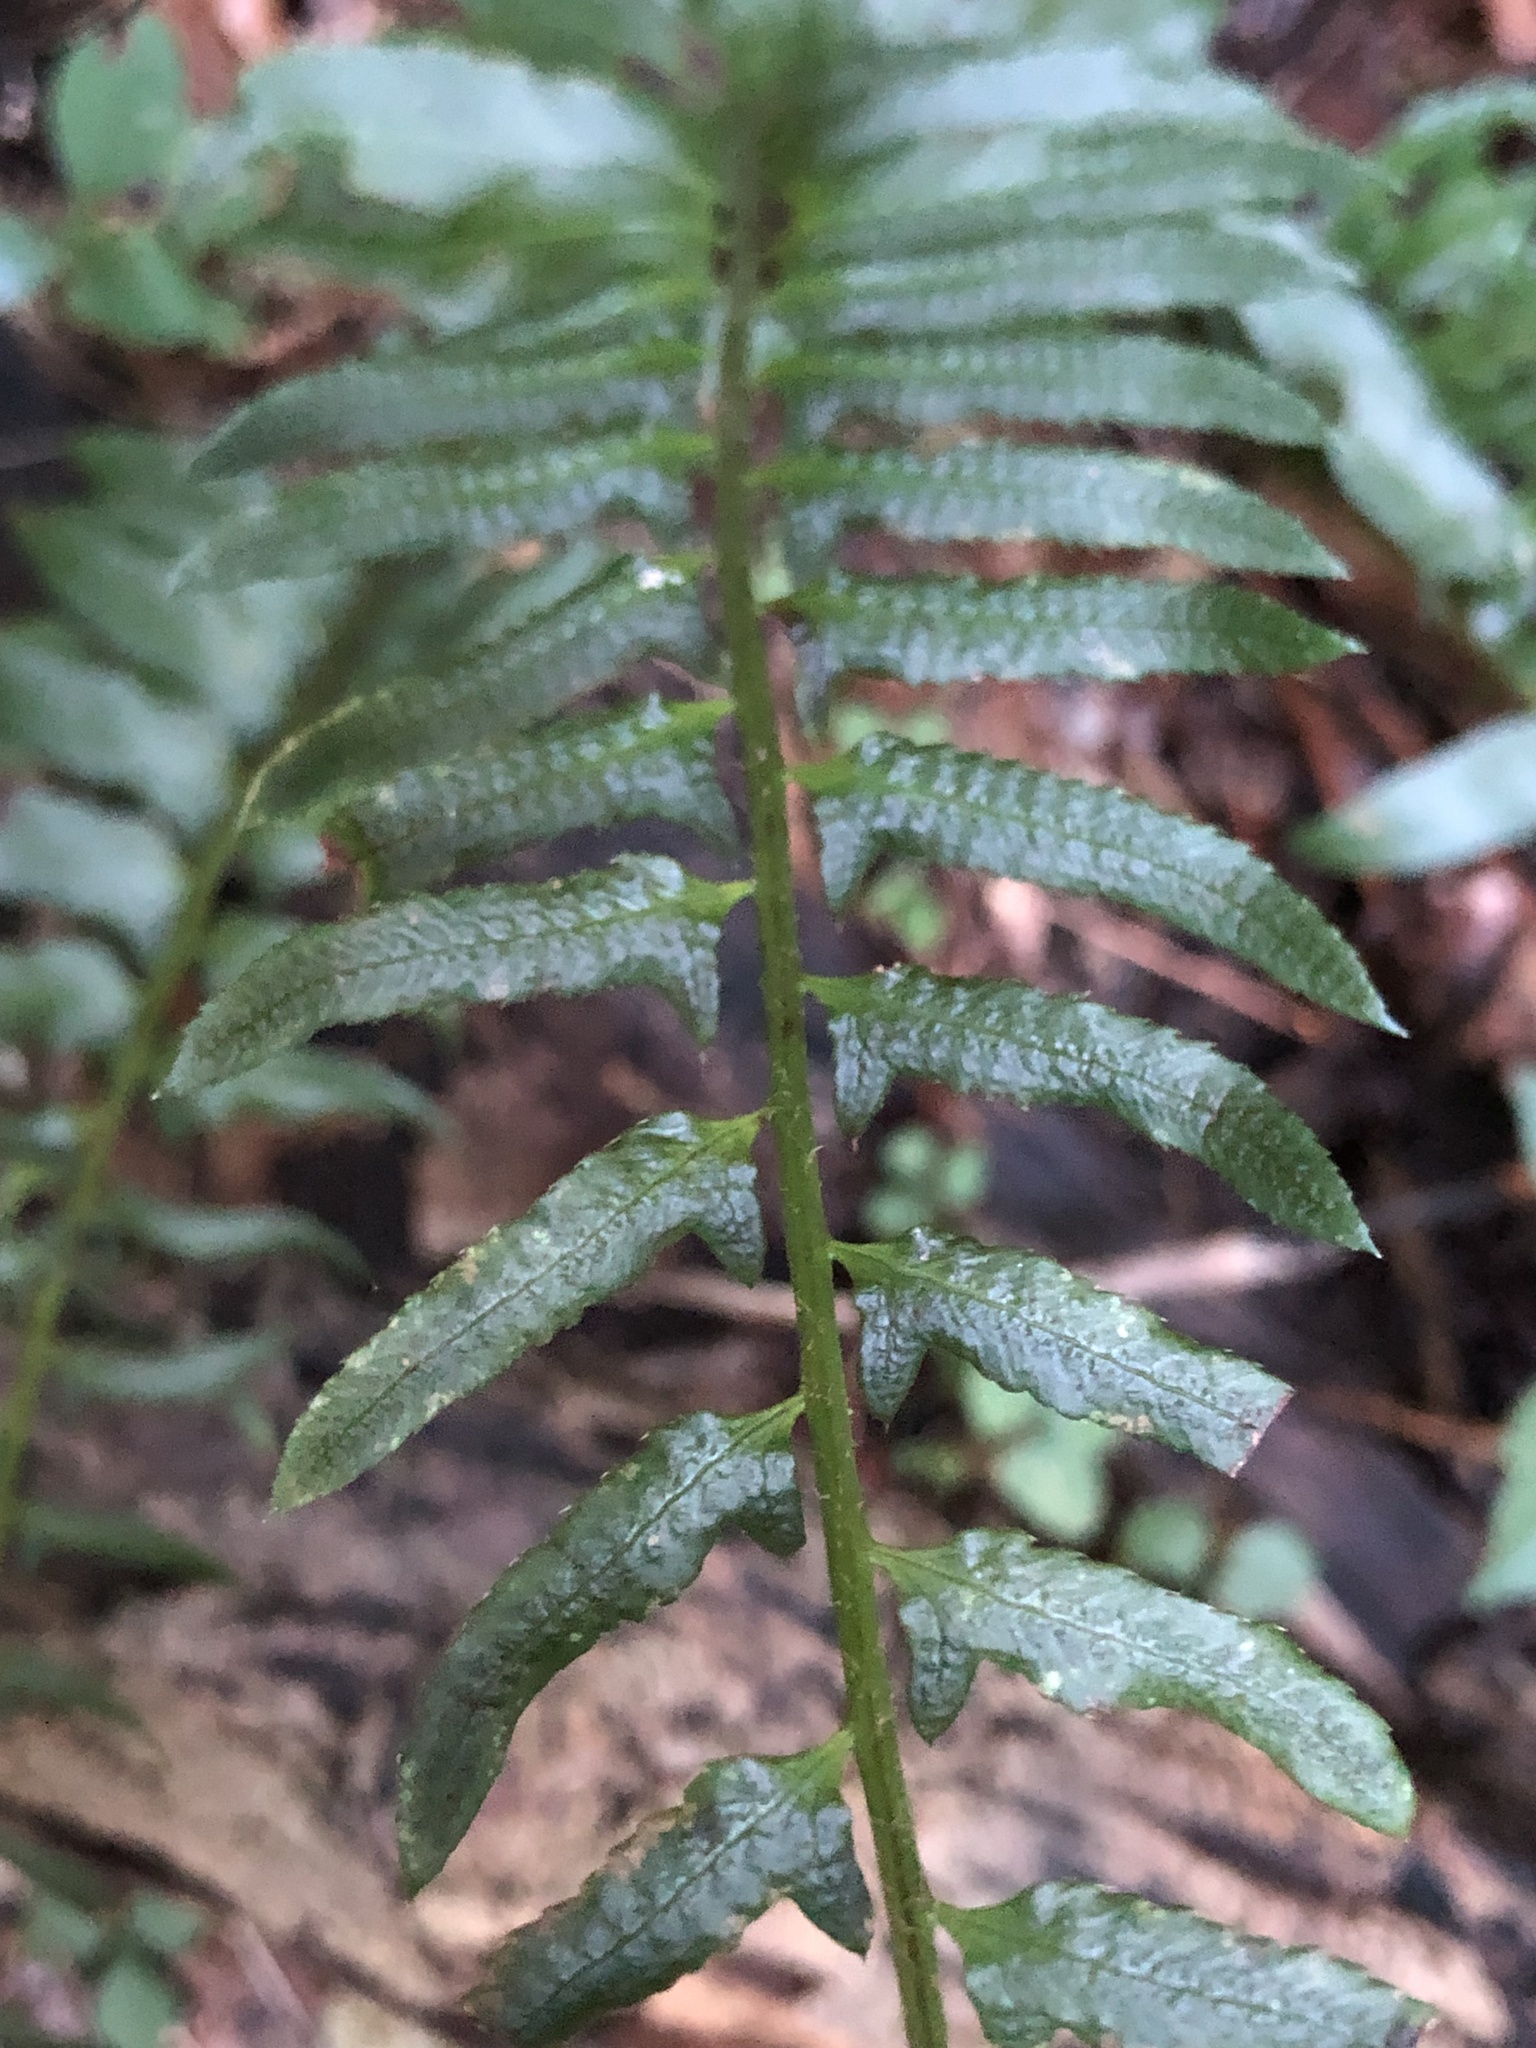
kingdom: Plantae
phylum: Tracheophyta
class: Polypodiopsida
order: Polypodiales
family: Dryopteridaceae
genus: Polystichum
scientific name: Polystichum acrostichoides
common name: Christmas fern
